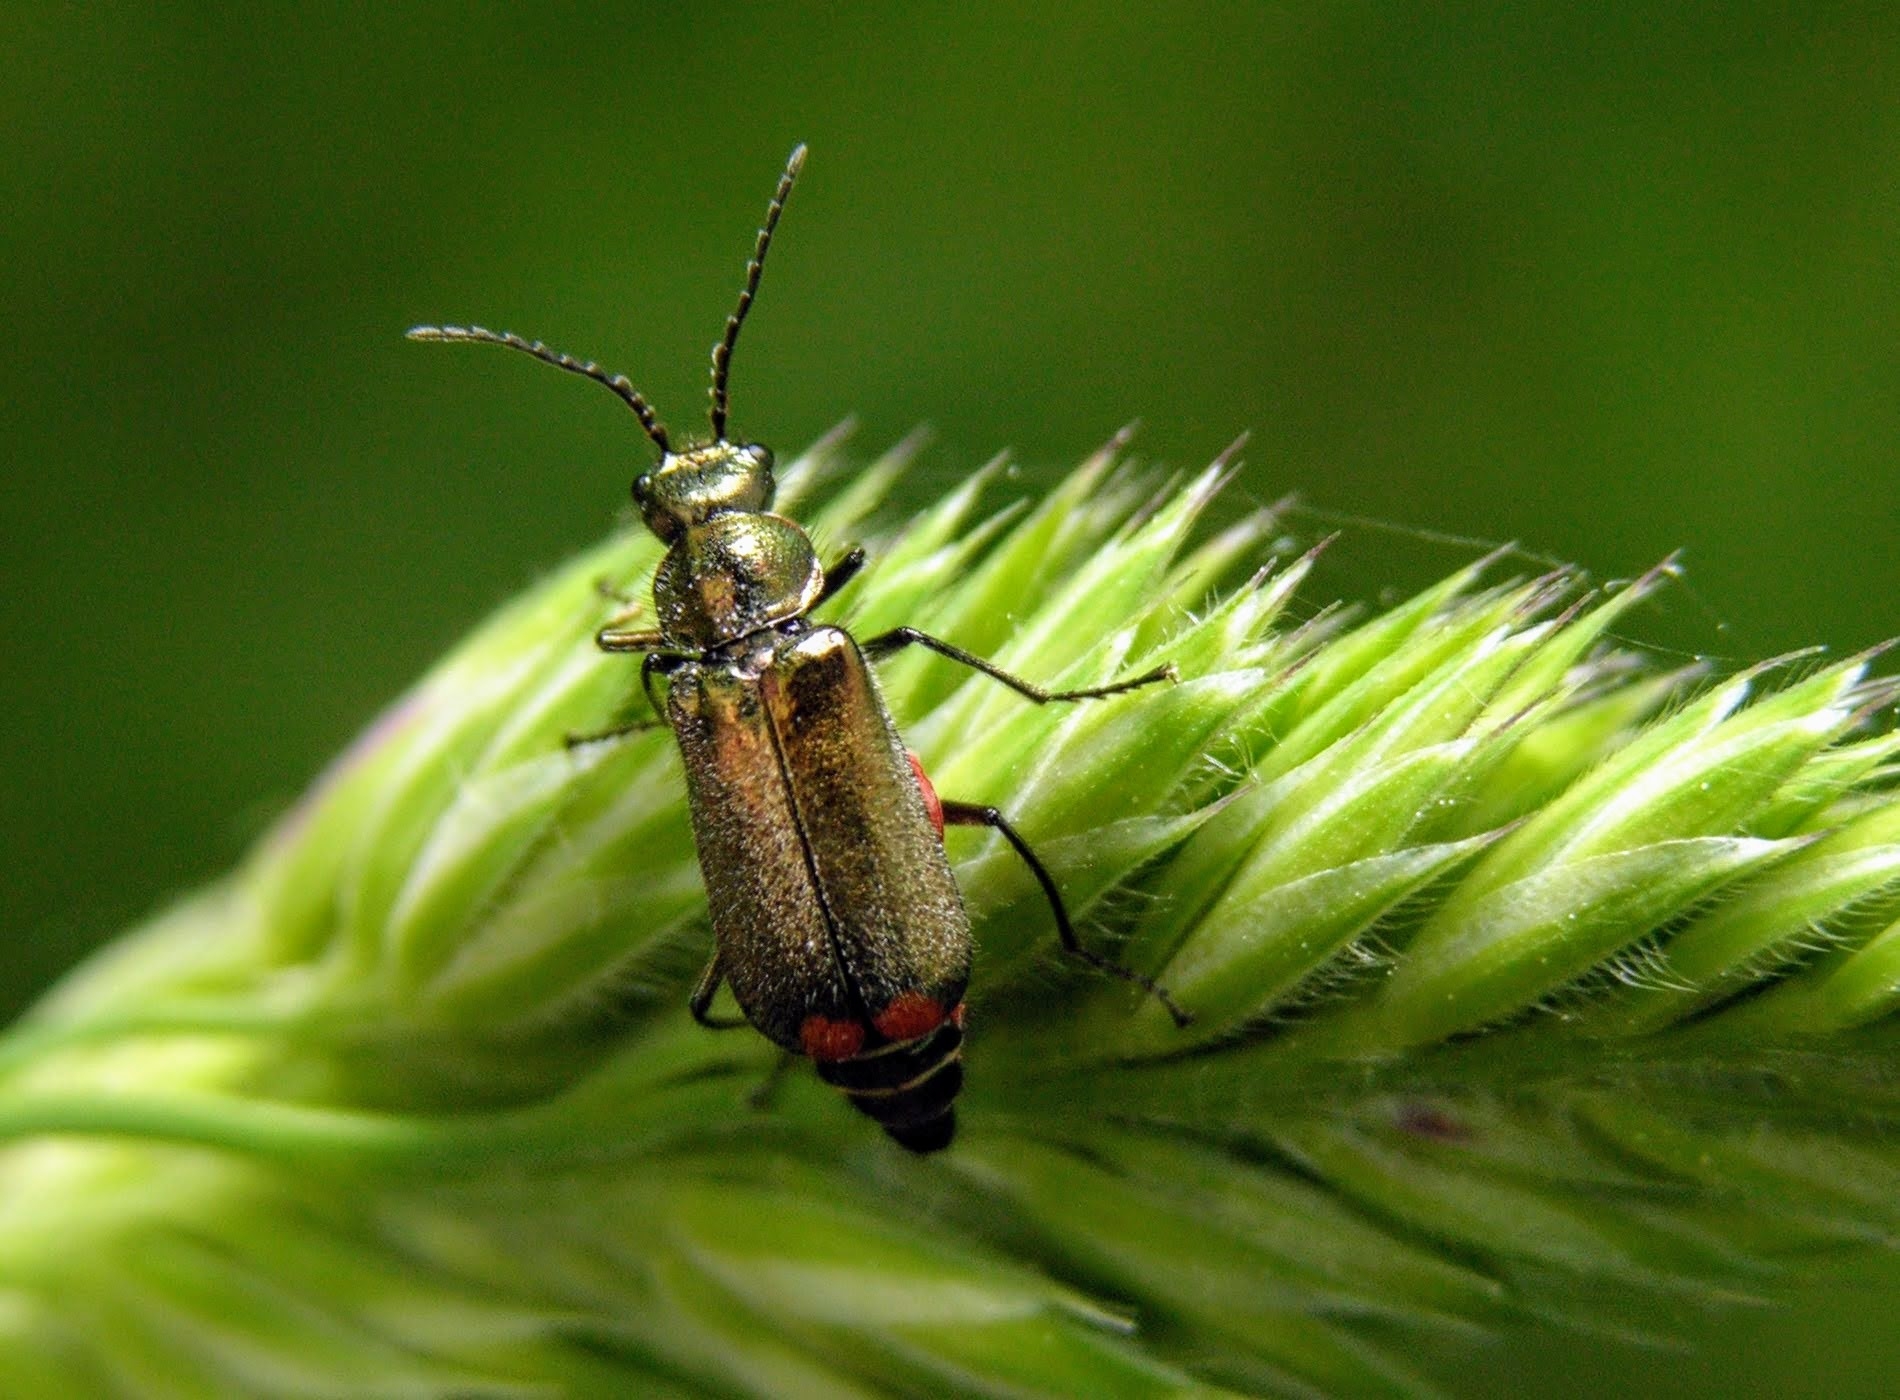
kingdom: Animalia
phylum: Arthropoda
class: Insecta
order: Coleoptera
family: Melyridae
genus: Malachius
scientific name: Malachius bipustulatus
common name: Malachite beetle
